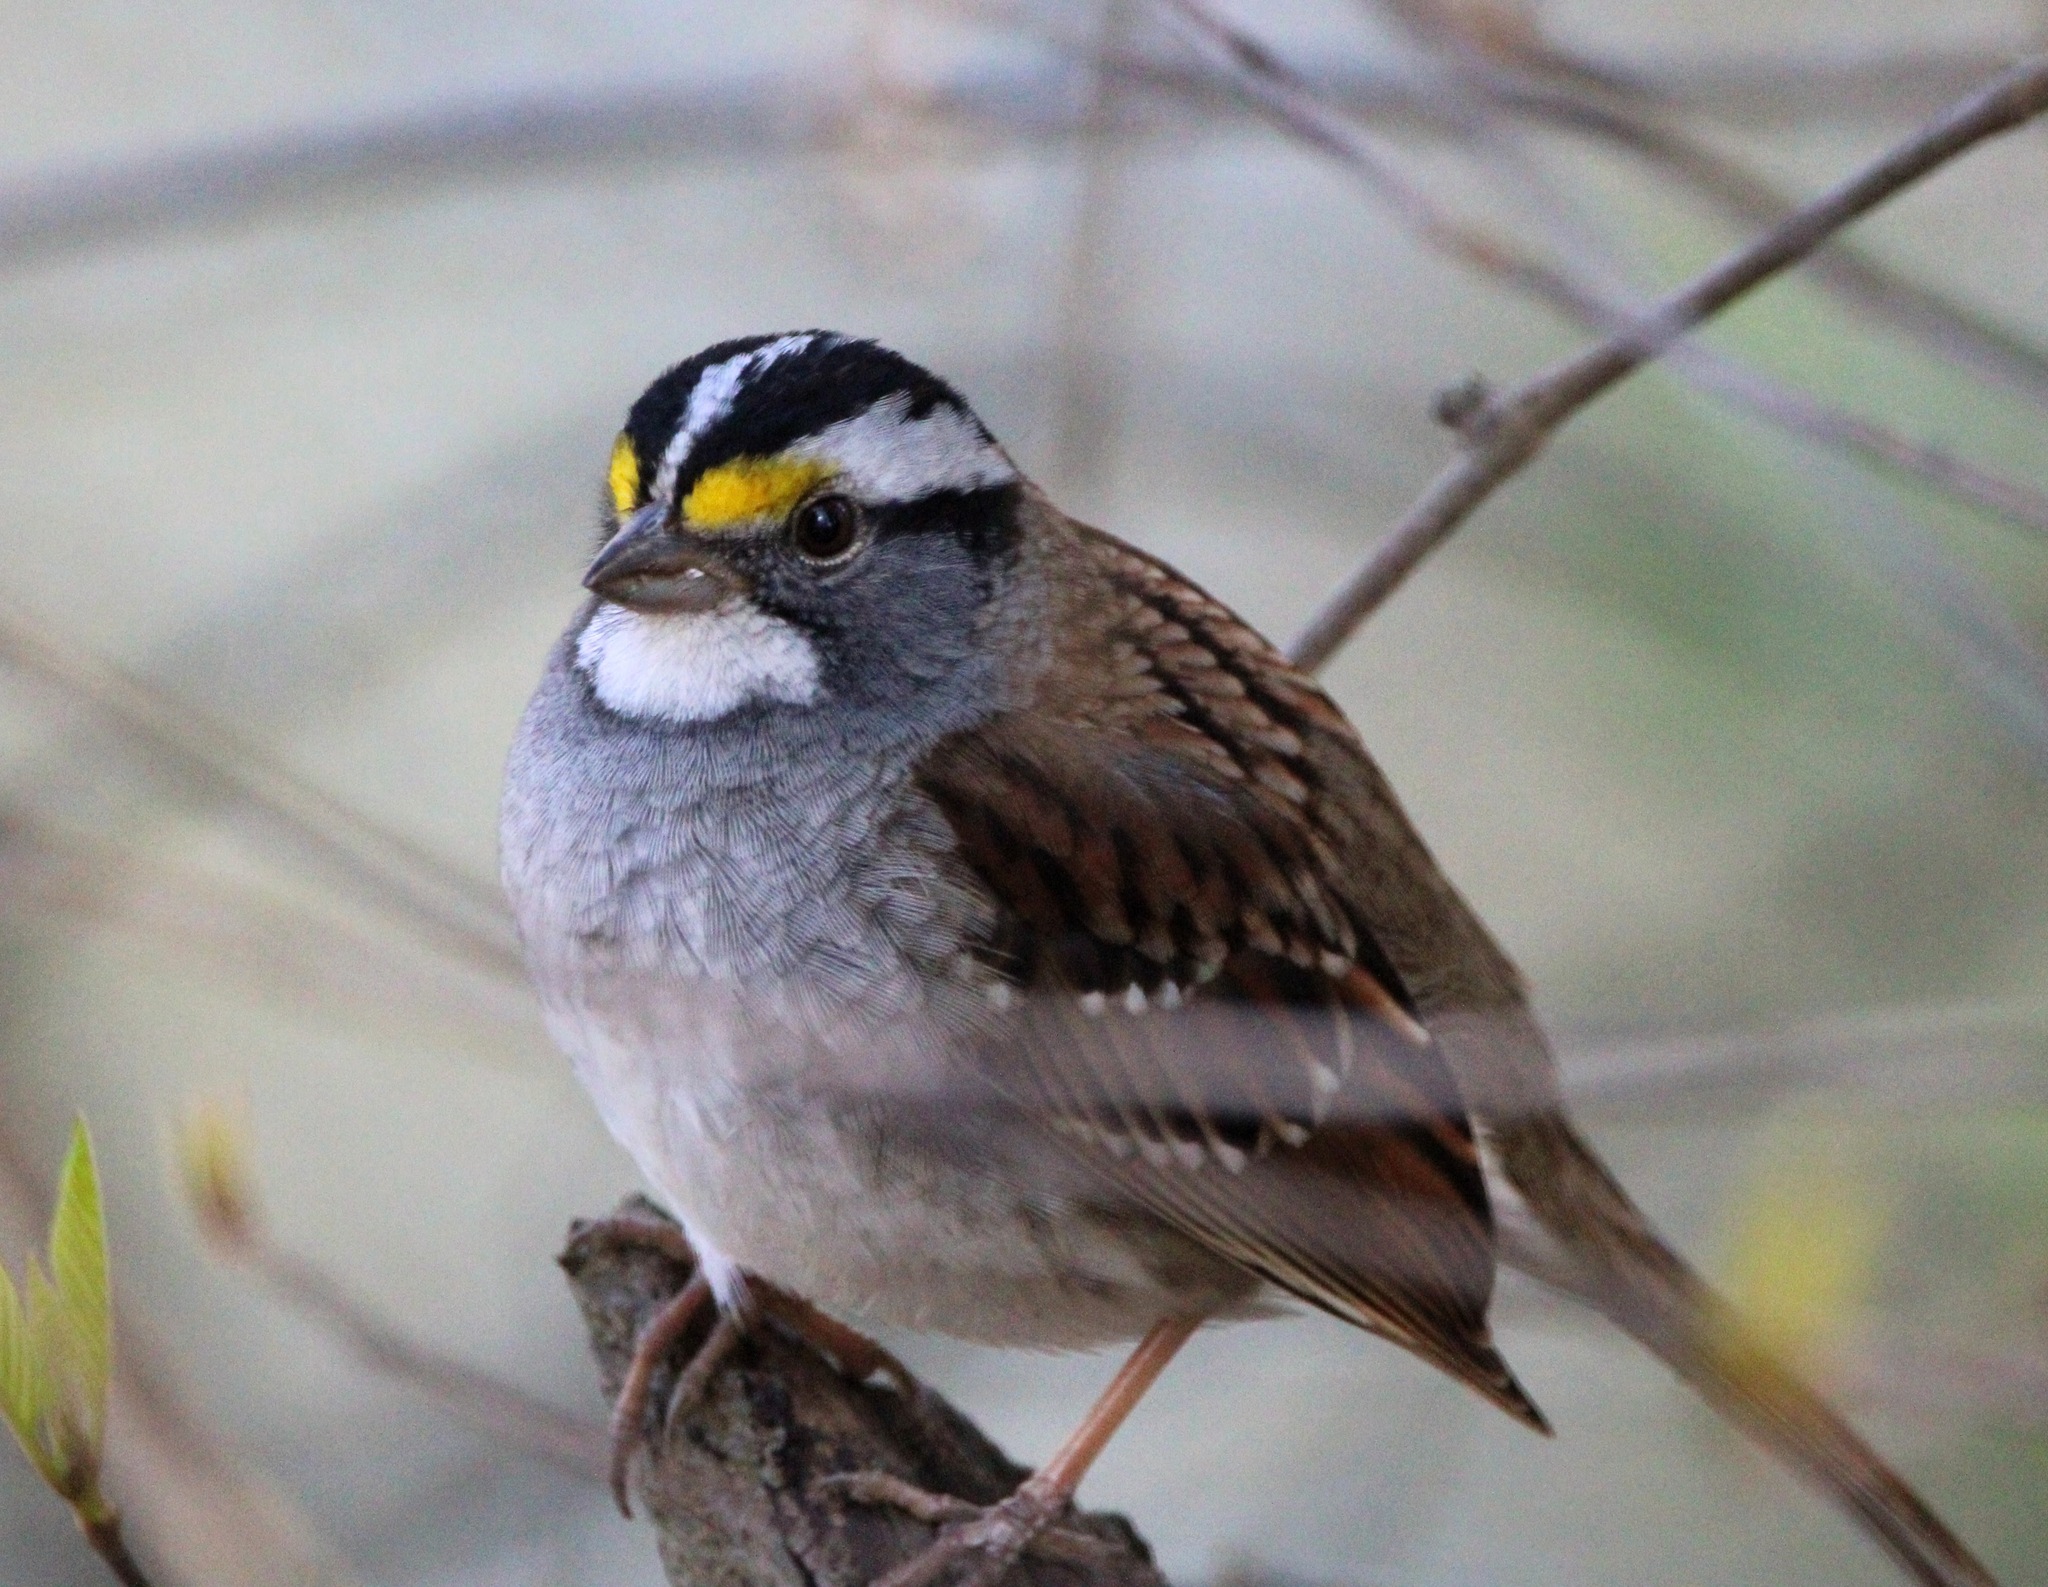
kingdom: Animalia
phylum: Chordata
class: Aves
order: Passeriformes
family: Passerellidae
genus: Zonotrichia
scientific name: Zonotrichia albicollis
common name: White-throated sparrow
